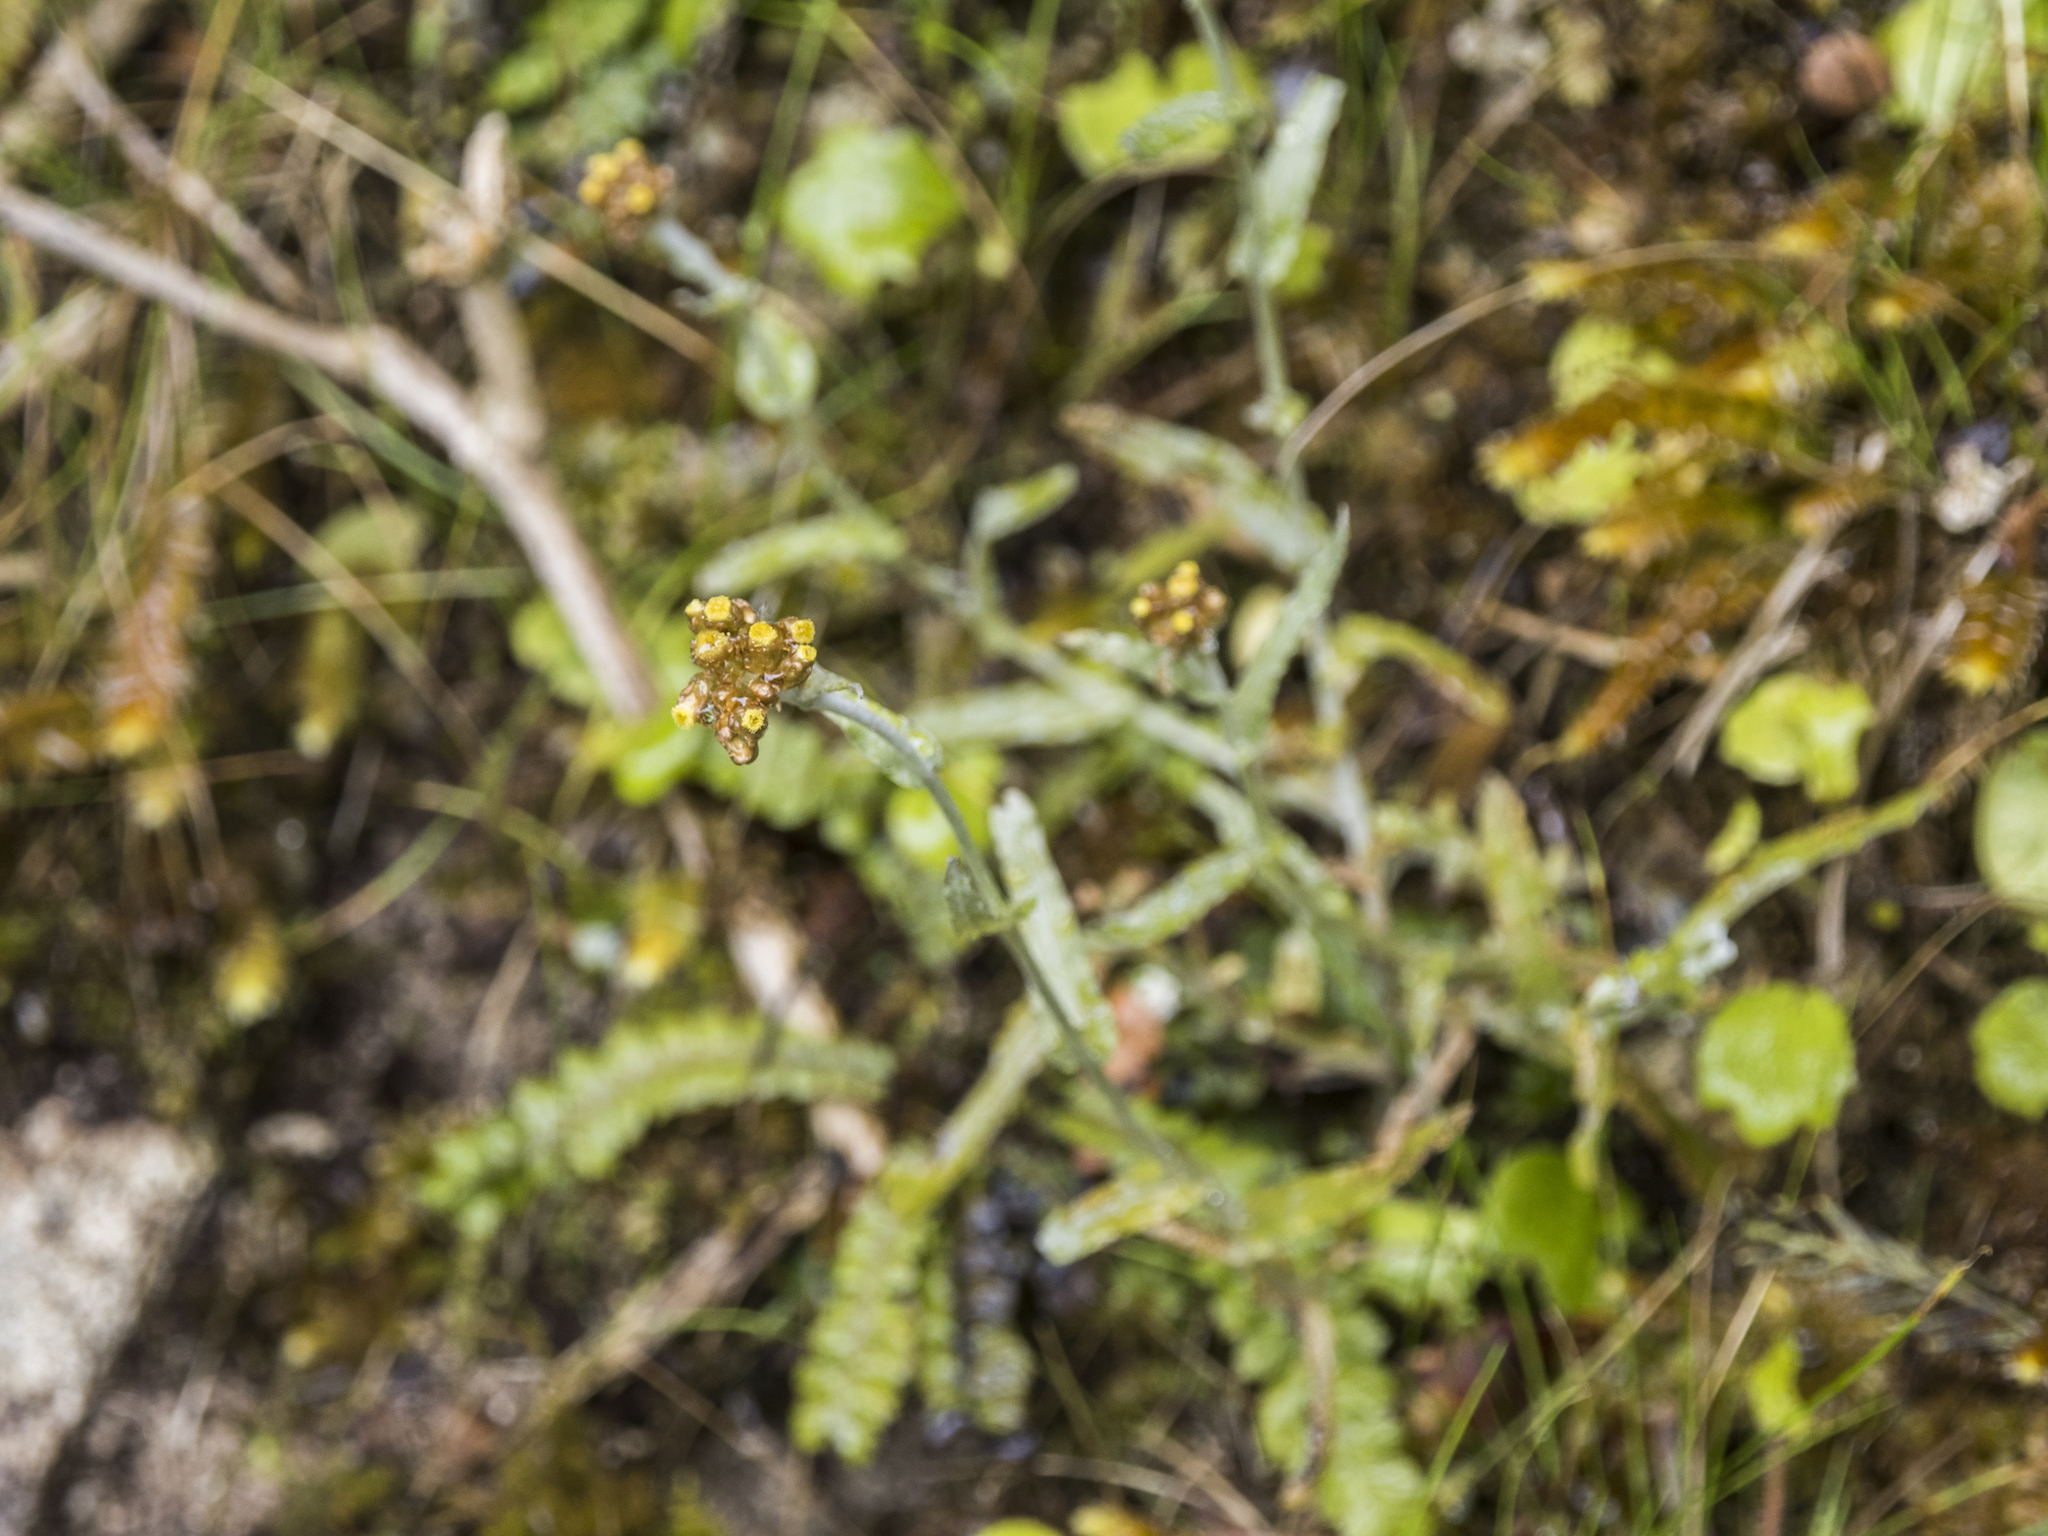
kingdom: Plantae
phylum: Tracheophyta
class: Magnoliopsida
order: Asterales
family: Asteraceae
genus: Pseudognaphalium
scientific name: Pseudognaphalium
